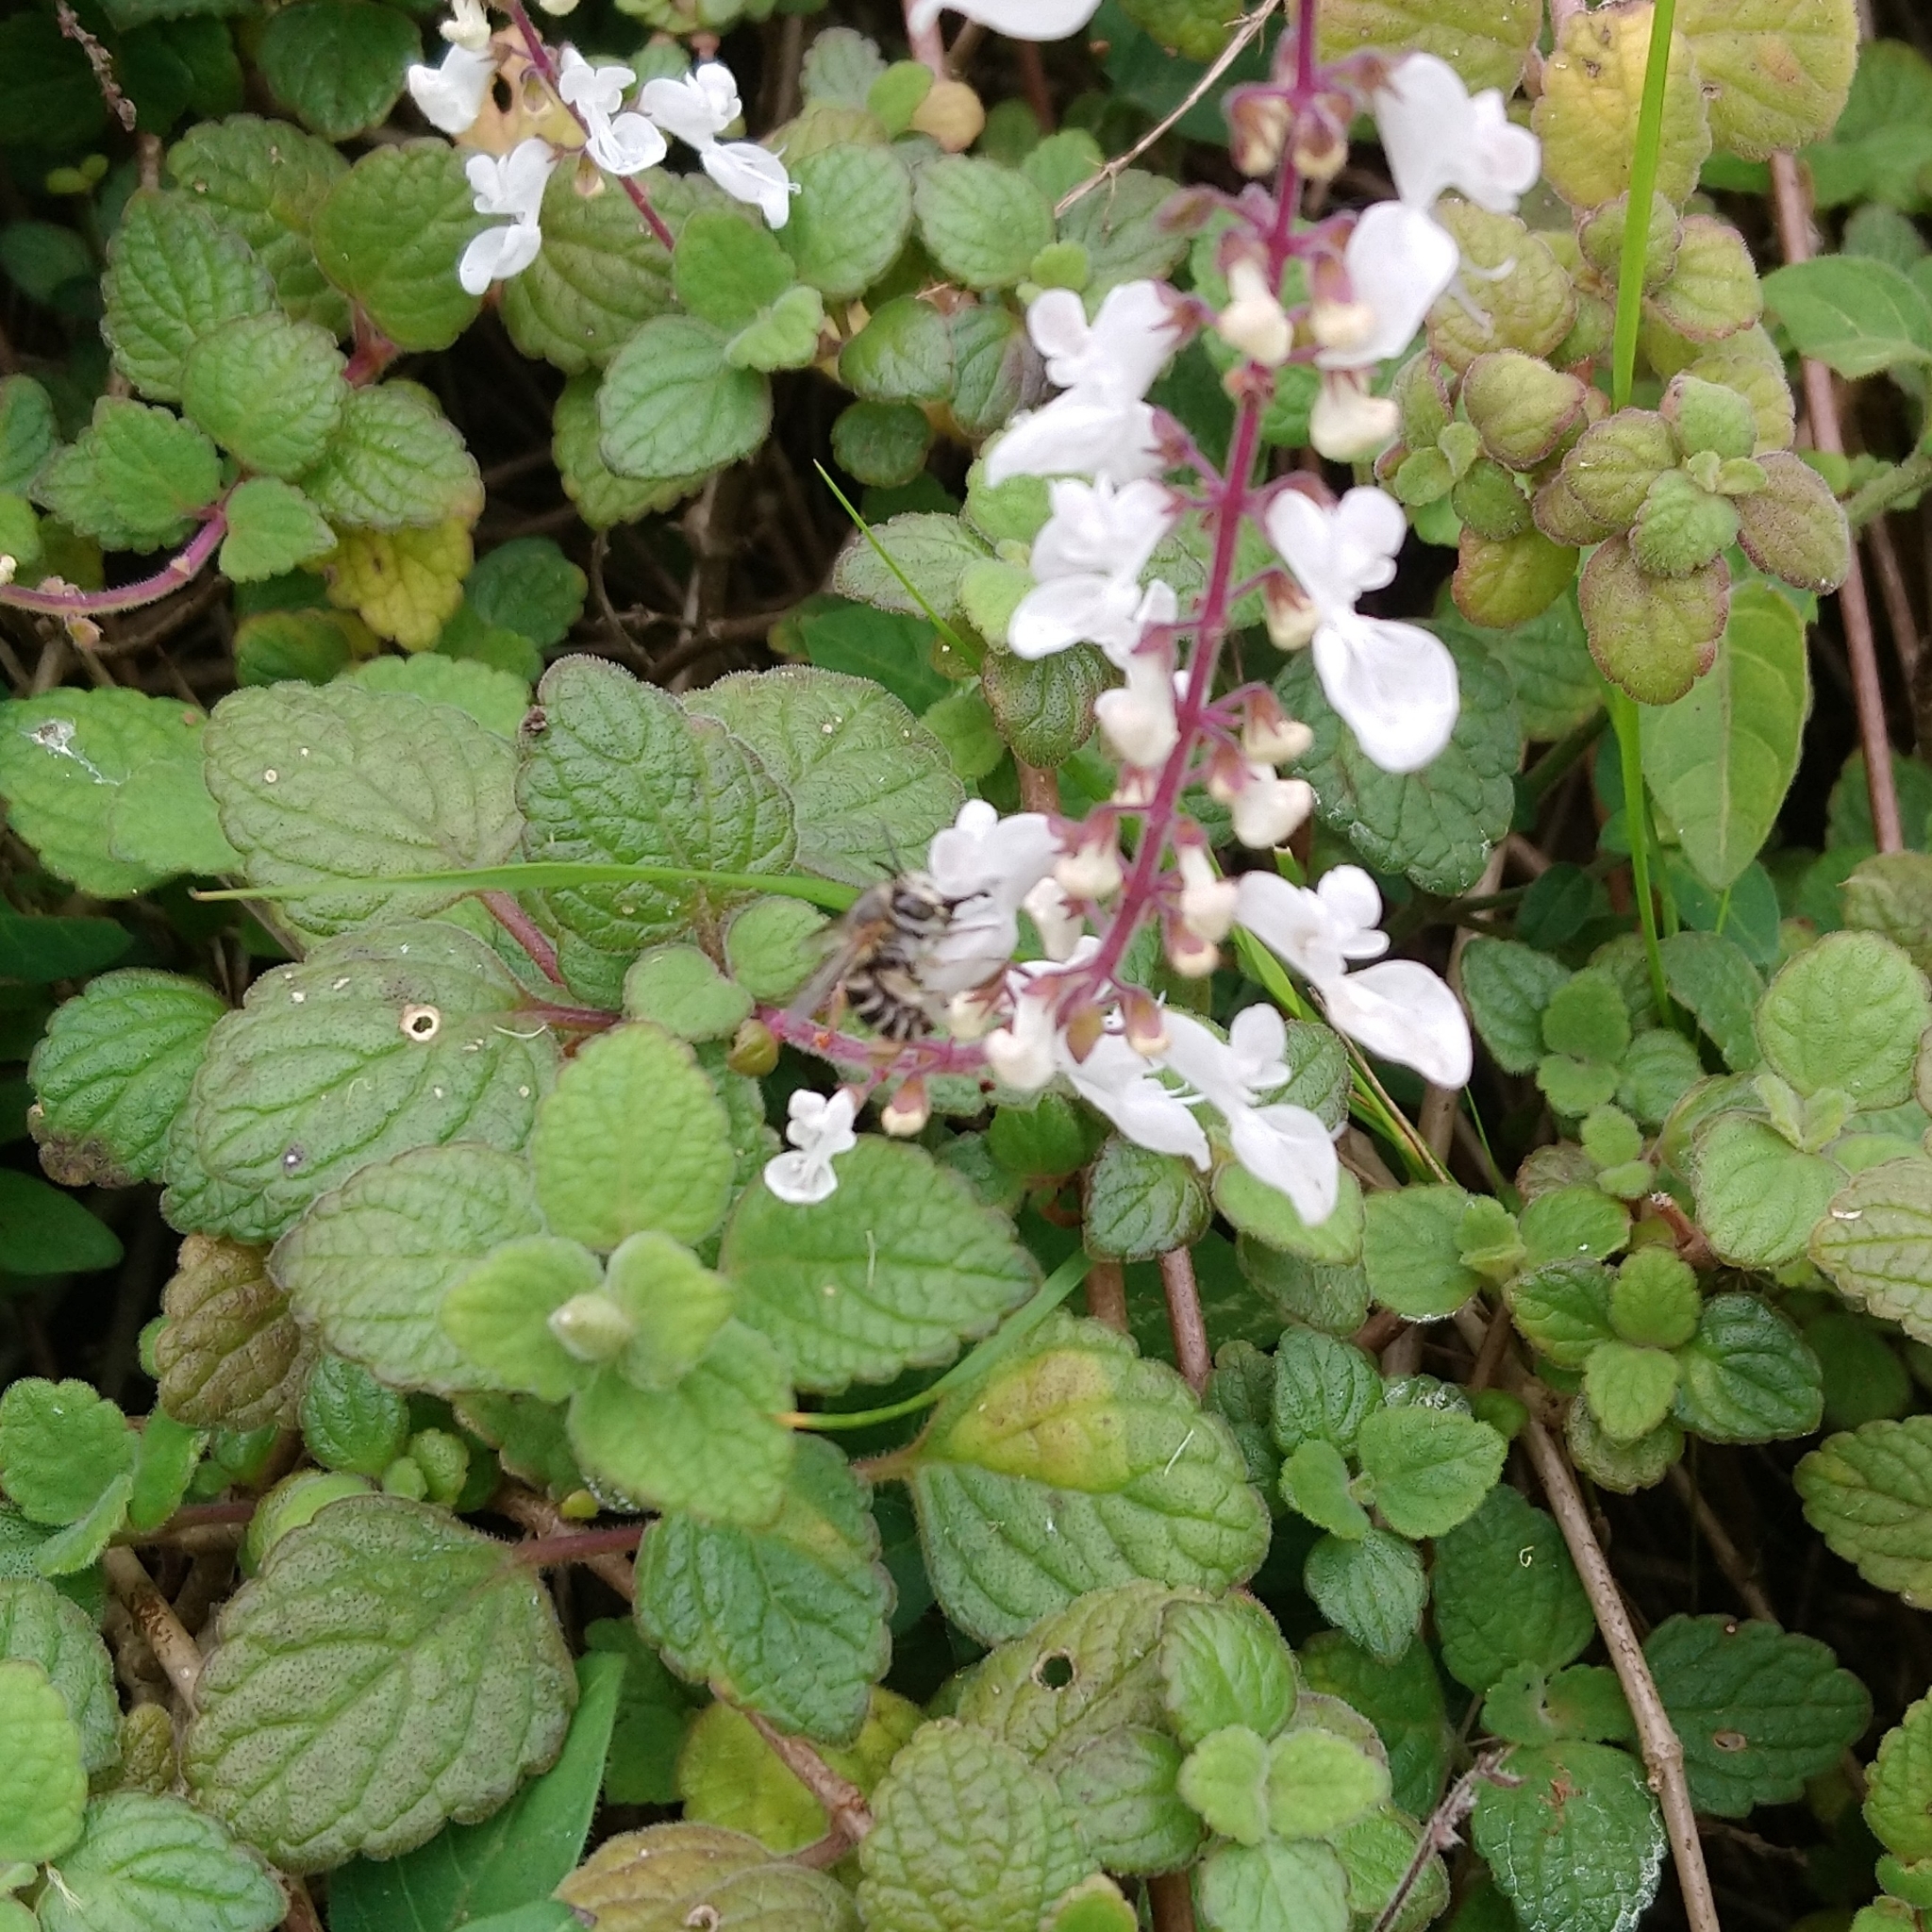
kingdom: Plantae
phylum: Tracheophyta
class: Magnoliopsida
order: Lamiales
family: Lamiaceae
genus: Coleus
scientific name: Coleus madagascariensis
